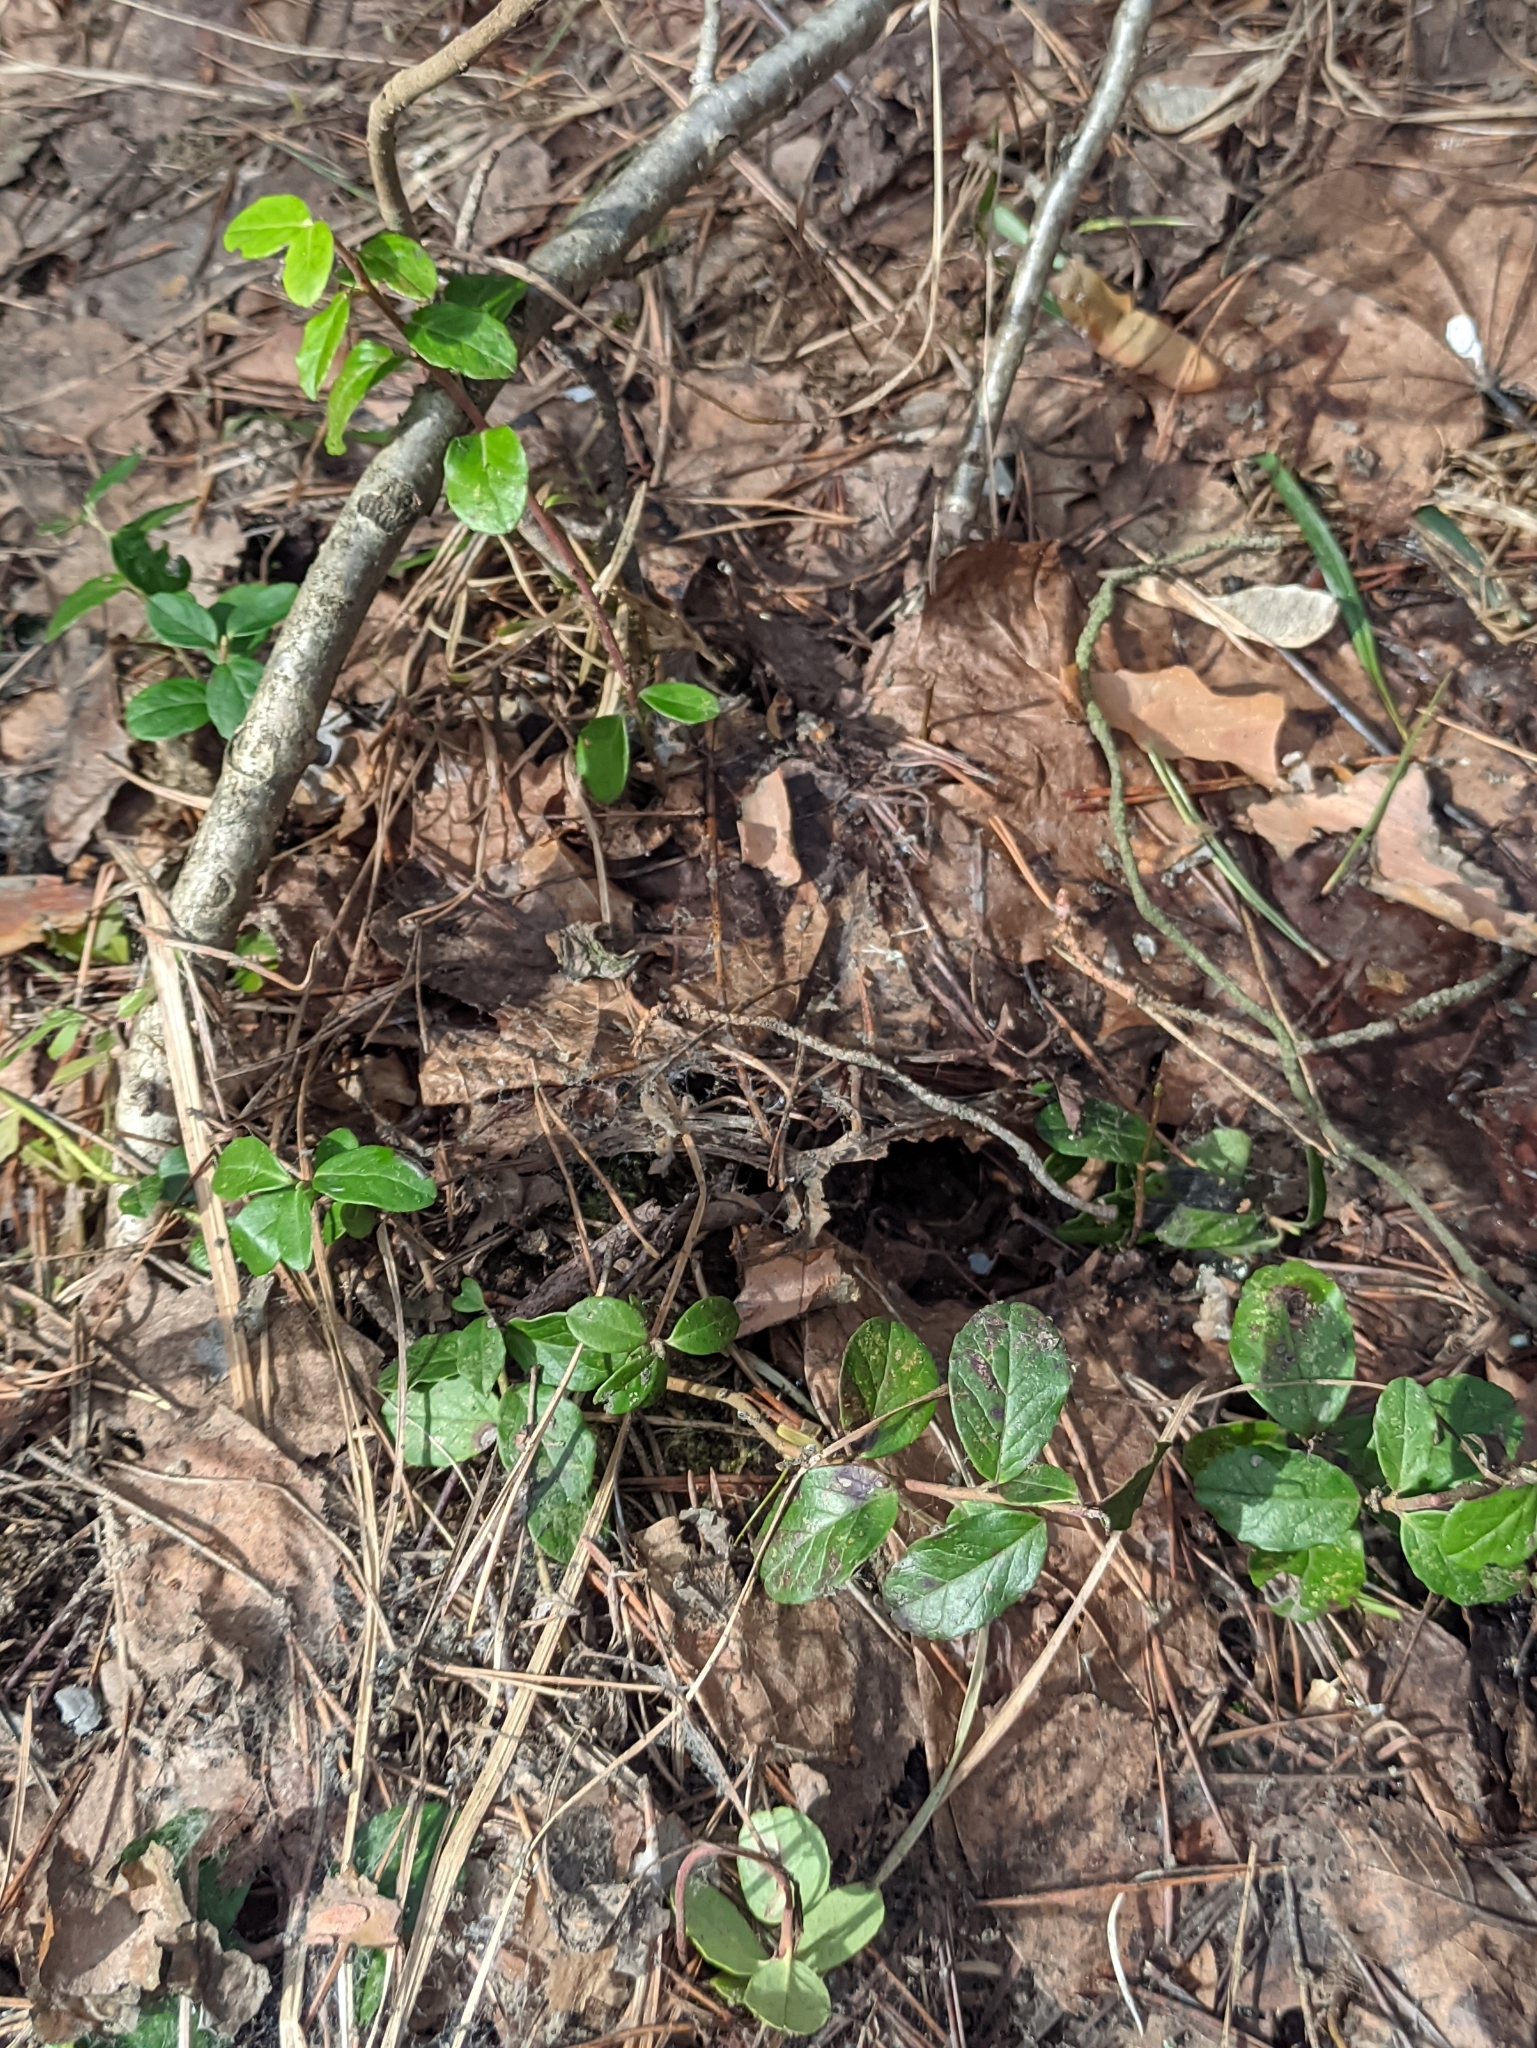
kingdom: Plantae
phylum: Tracheophyta
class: Magnoliopsida
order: Ericales
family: Ericaceae
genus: Vaccinium
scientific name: Vaccinium vitis-idaea
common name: Cowberry
